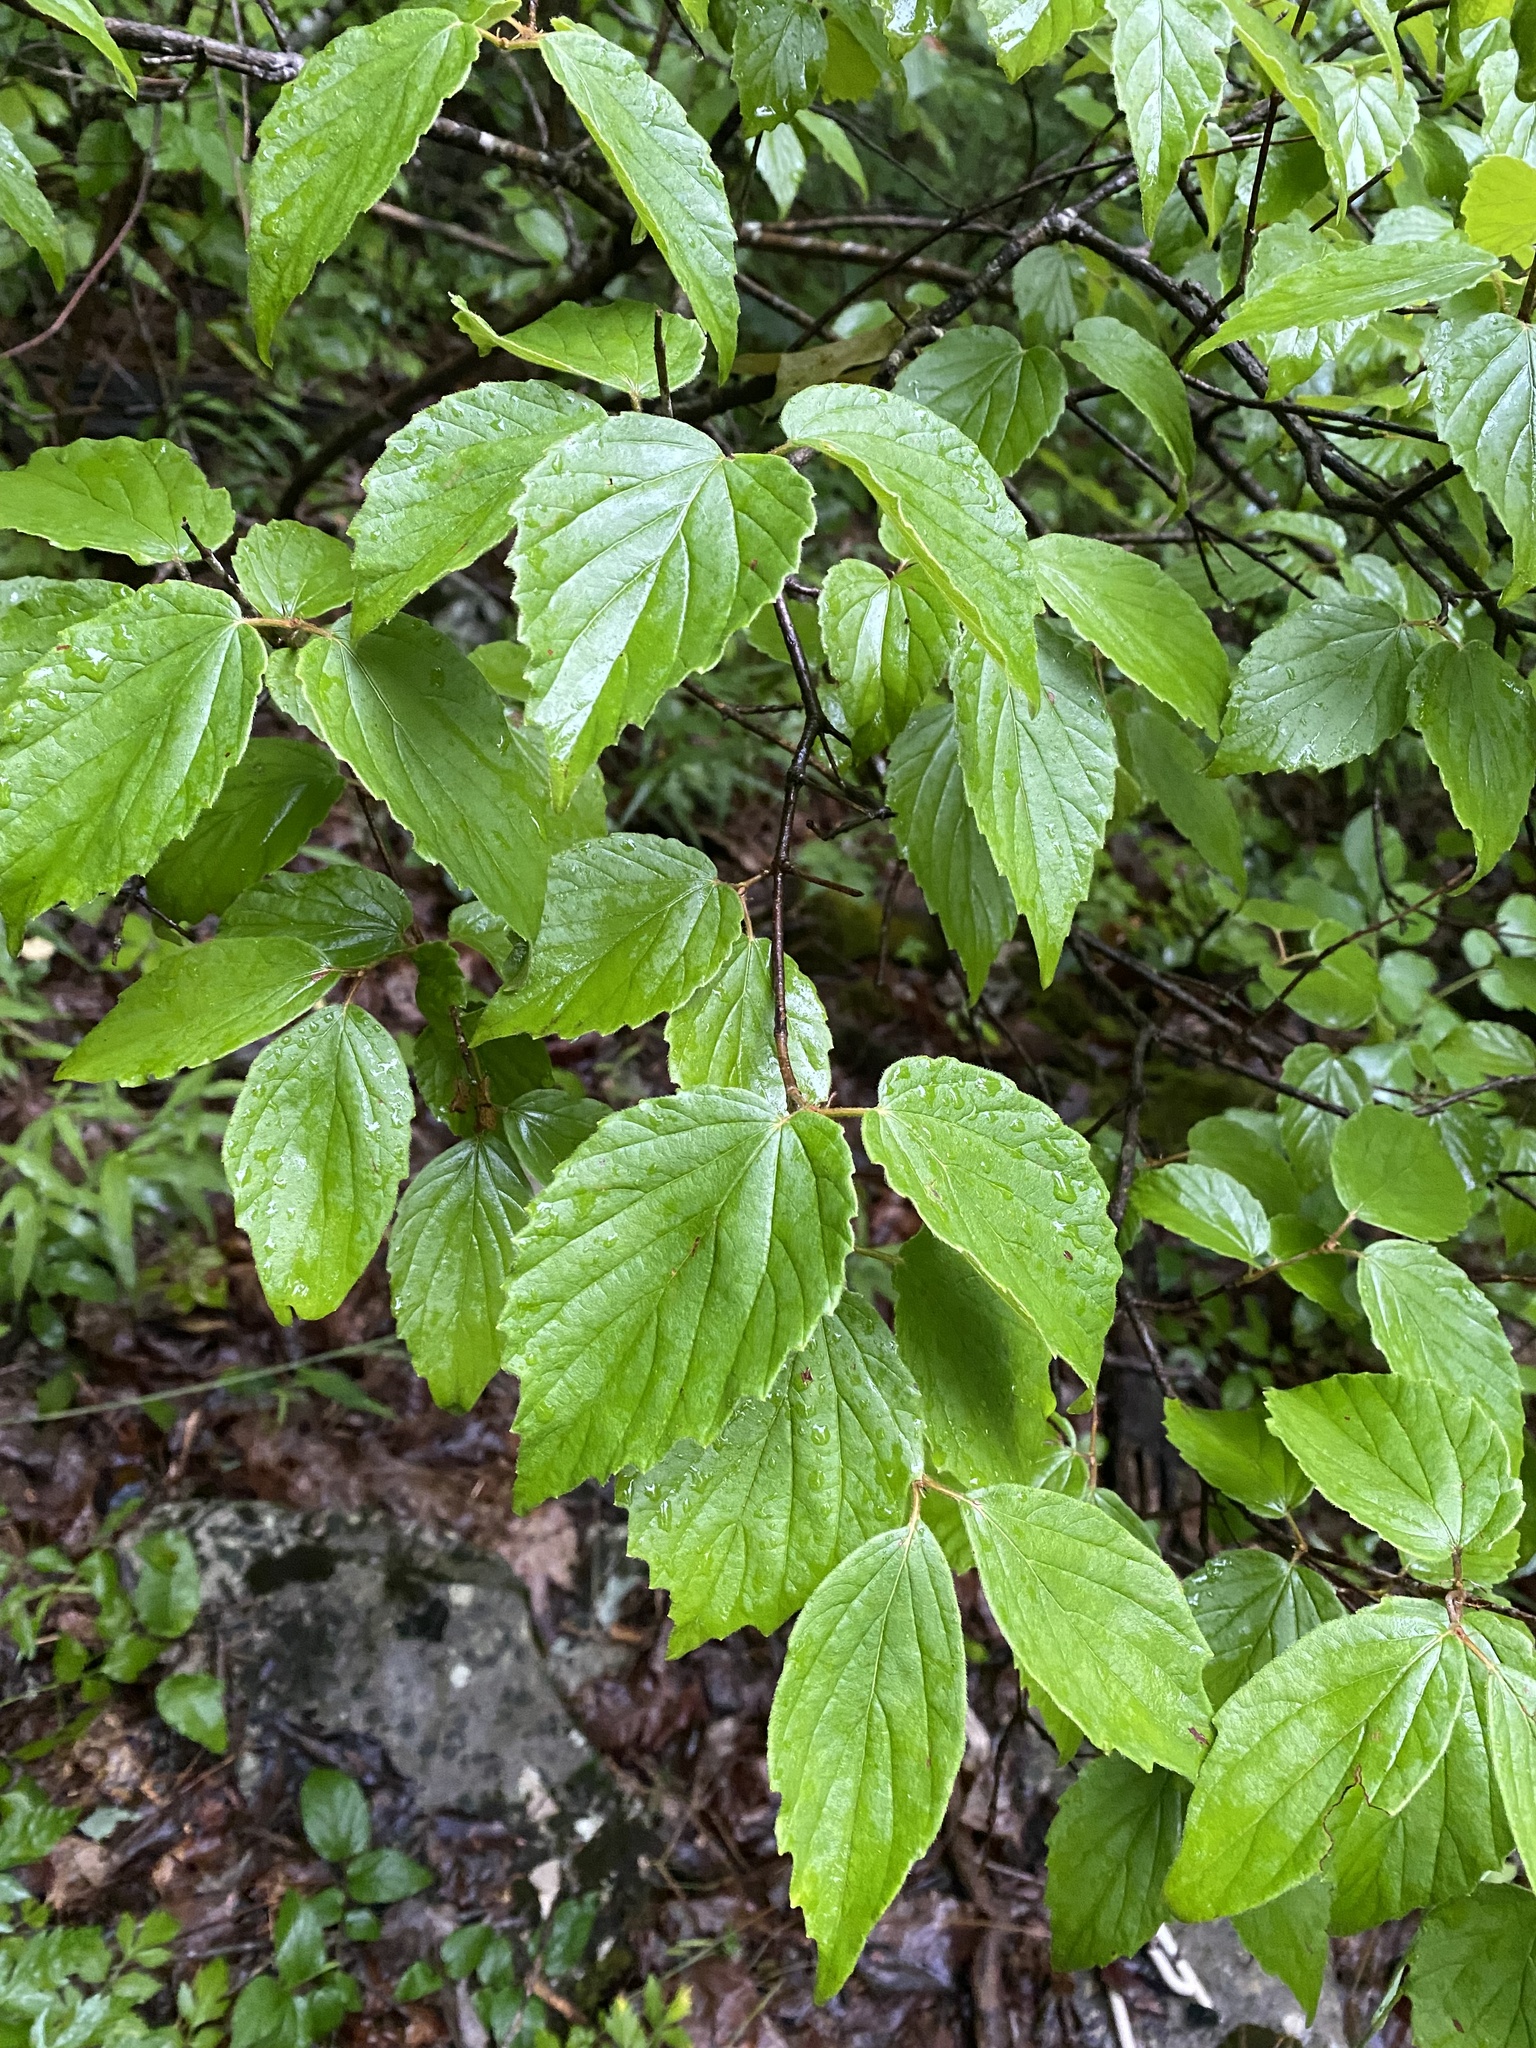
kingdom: Plantae
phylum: Tracheophyta
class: Magnoliopsida
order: Dipsacales
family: Viburnaceae
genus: Viburnum
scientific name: Viburnum rafinesqueanum
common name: Downy arrow-wood
